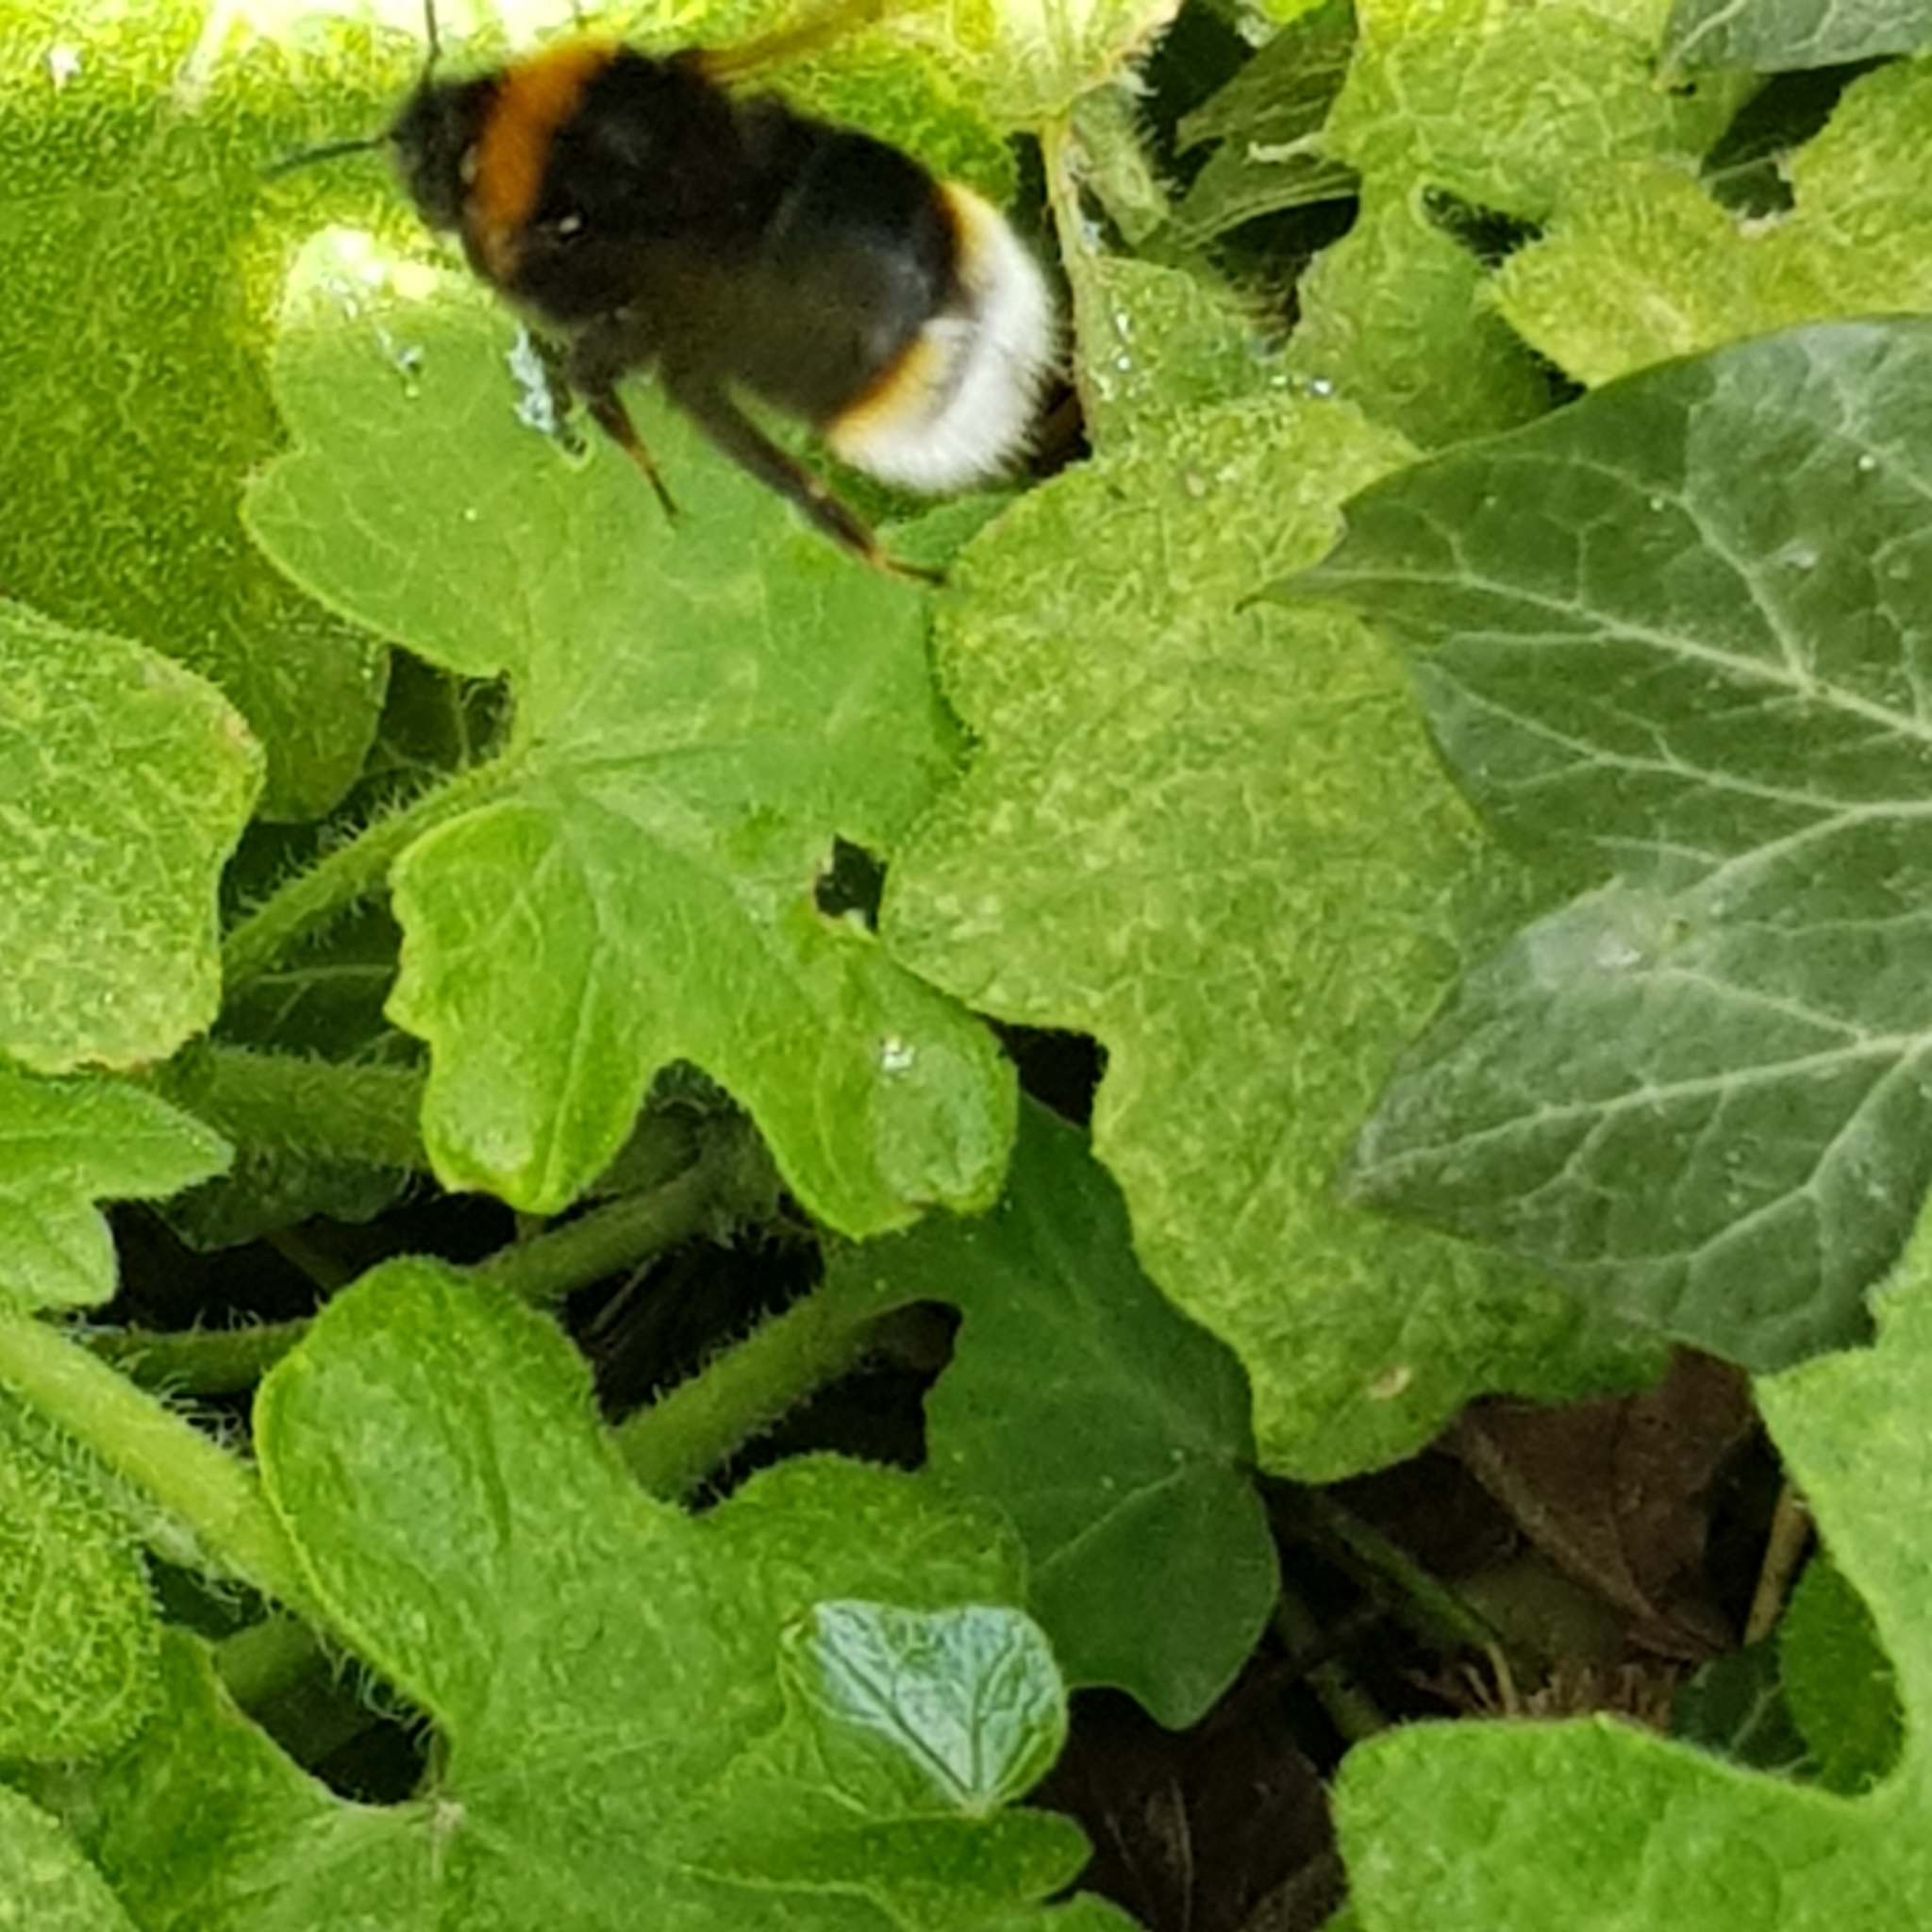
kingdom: Animalia
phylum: Arthropoda
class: Insecta
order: Hymenoptera
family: Apidae
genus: Bombus
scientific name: Bombus vestalis
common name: Vestal cuckoo bee
